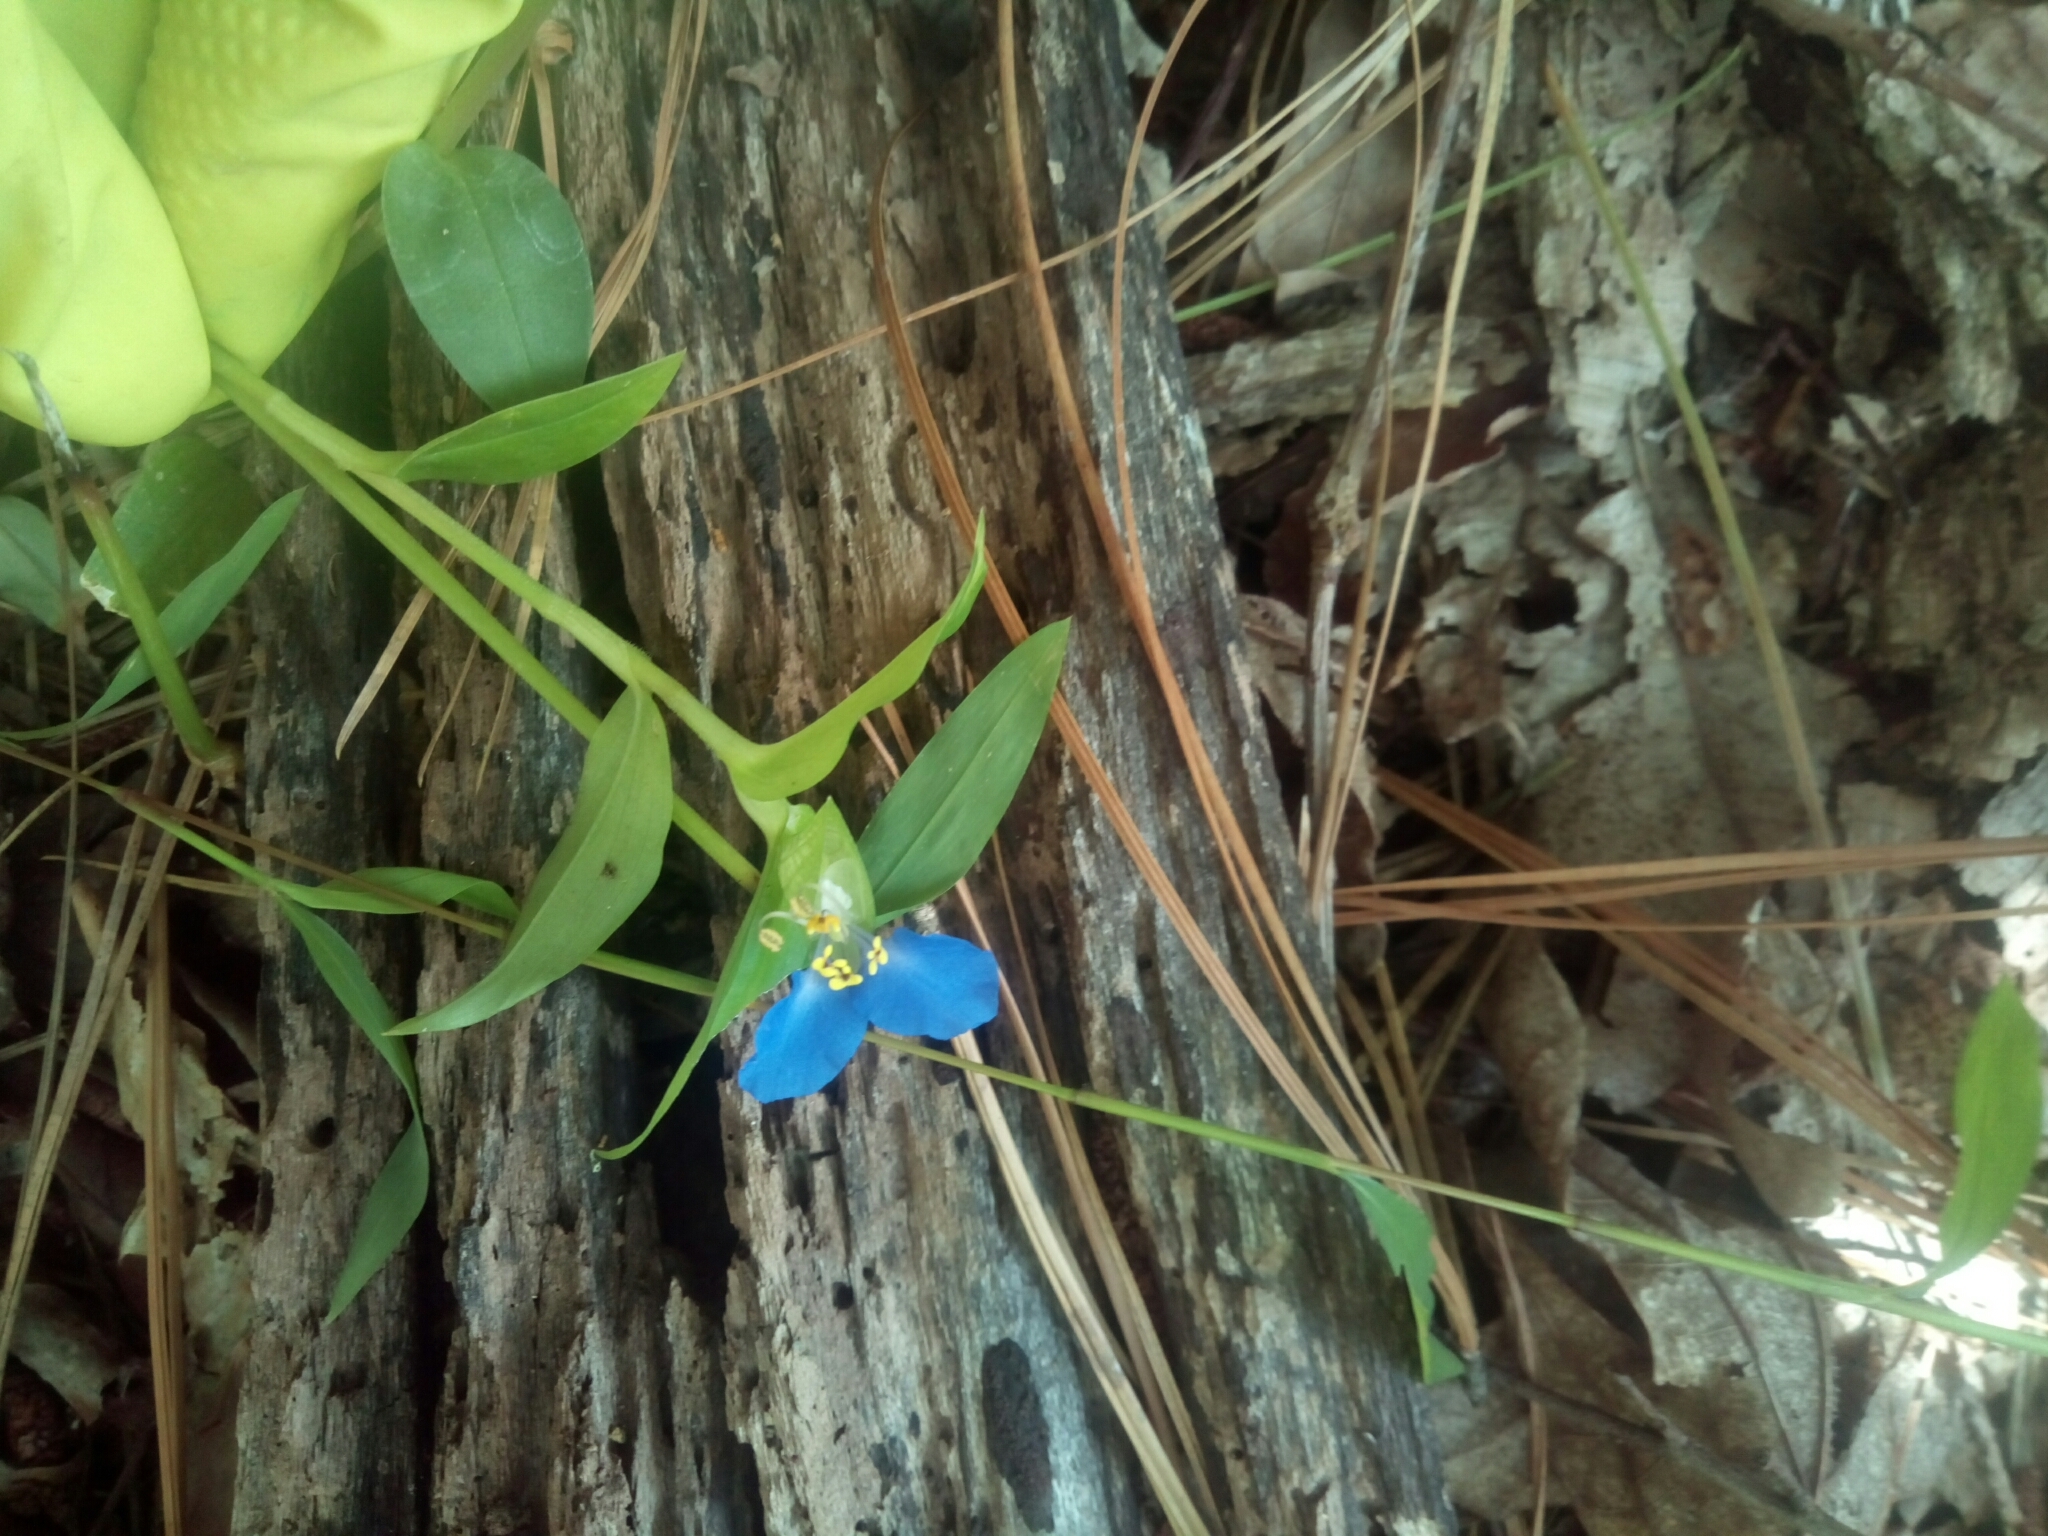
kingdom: Plantae
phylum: Tracheophyta
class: Liliopsida
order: Commelinales
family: Commelinaceae
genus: Commelina
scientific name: Commelina communis
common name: Asiatic dayflower
